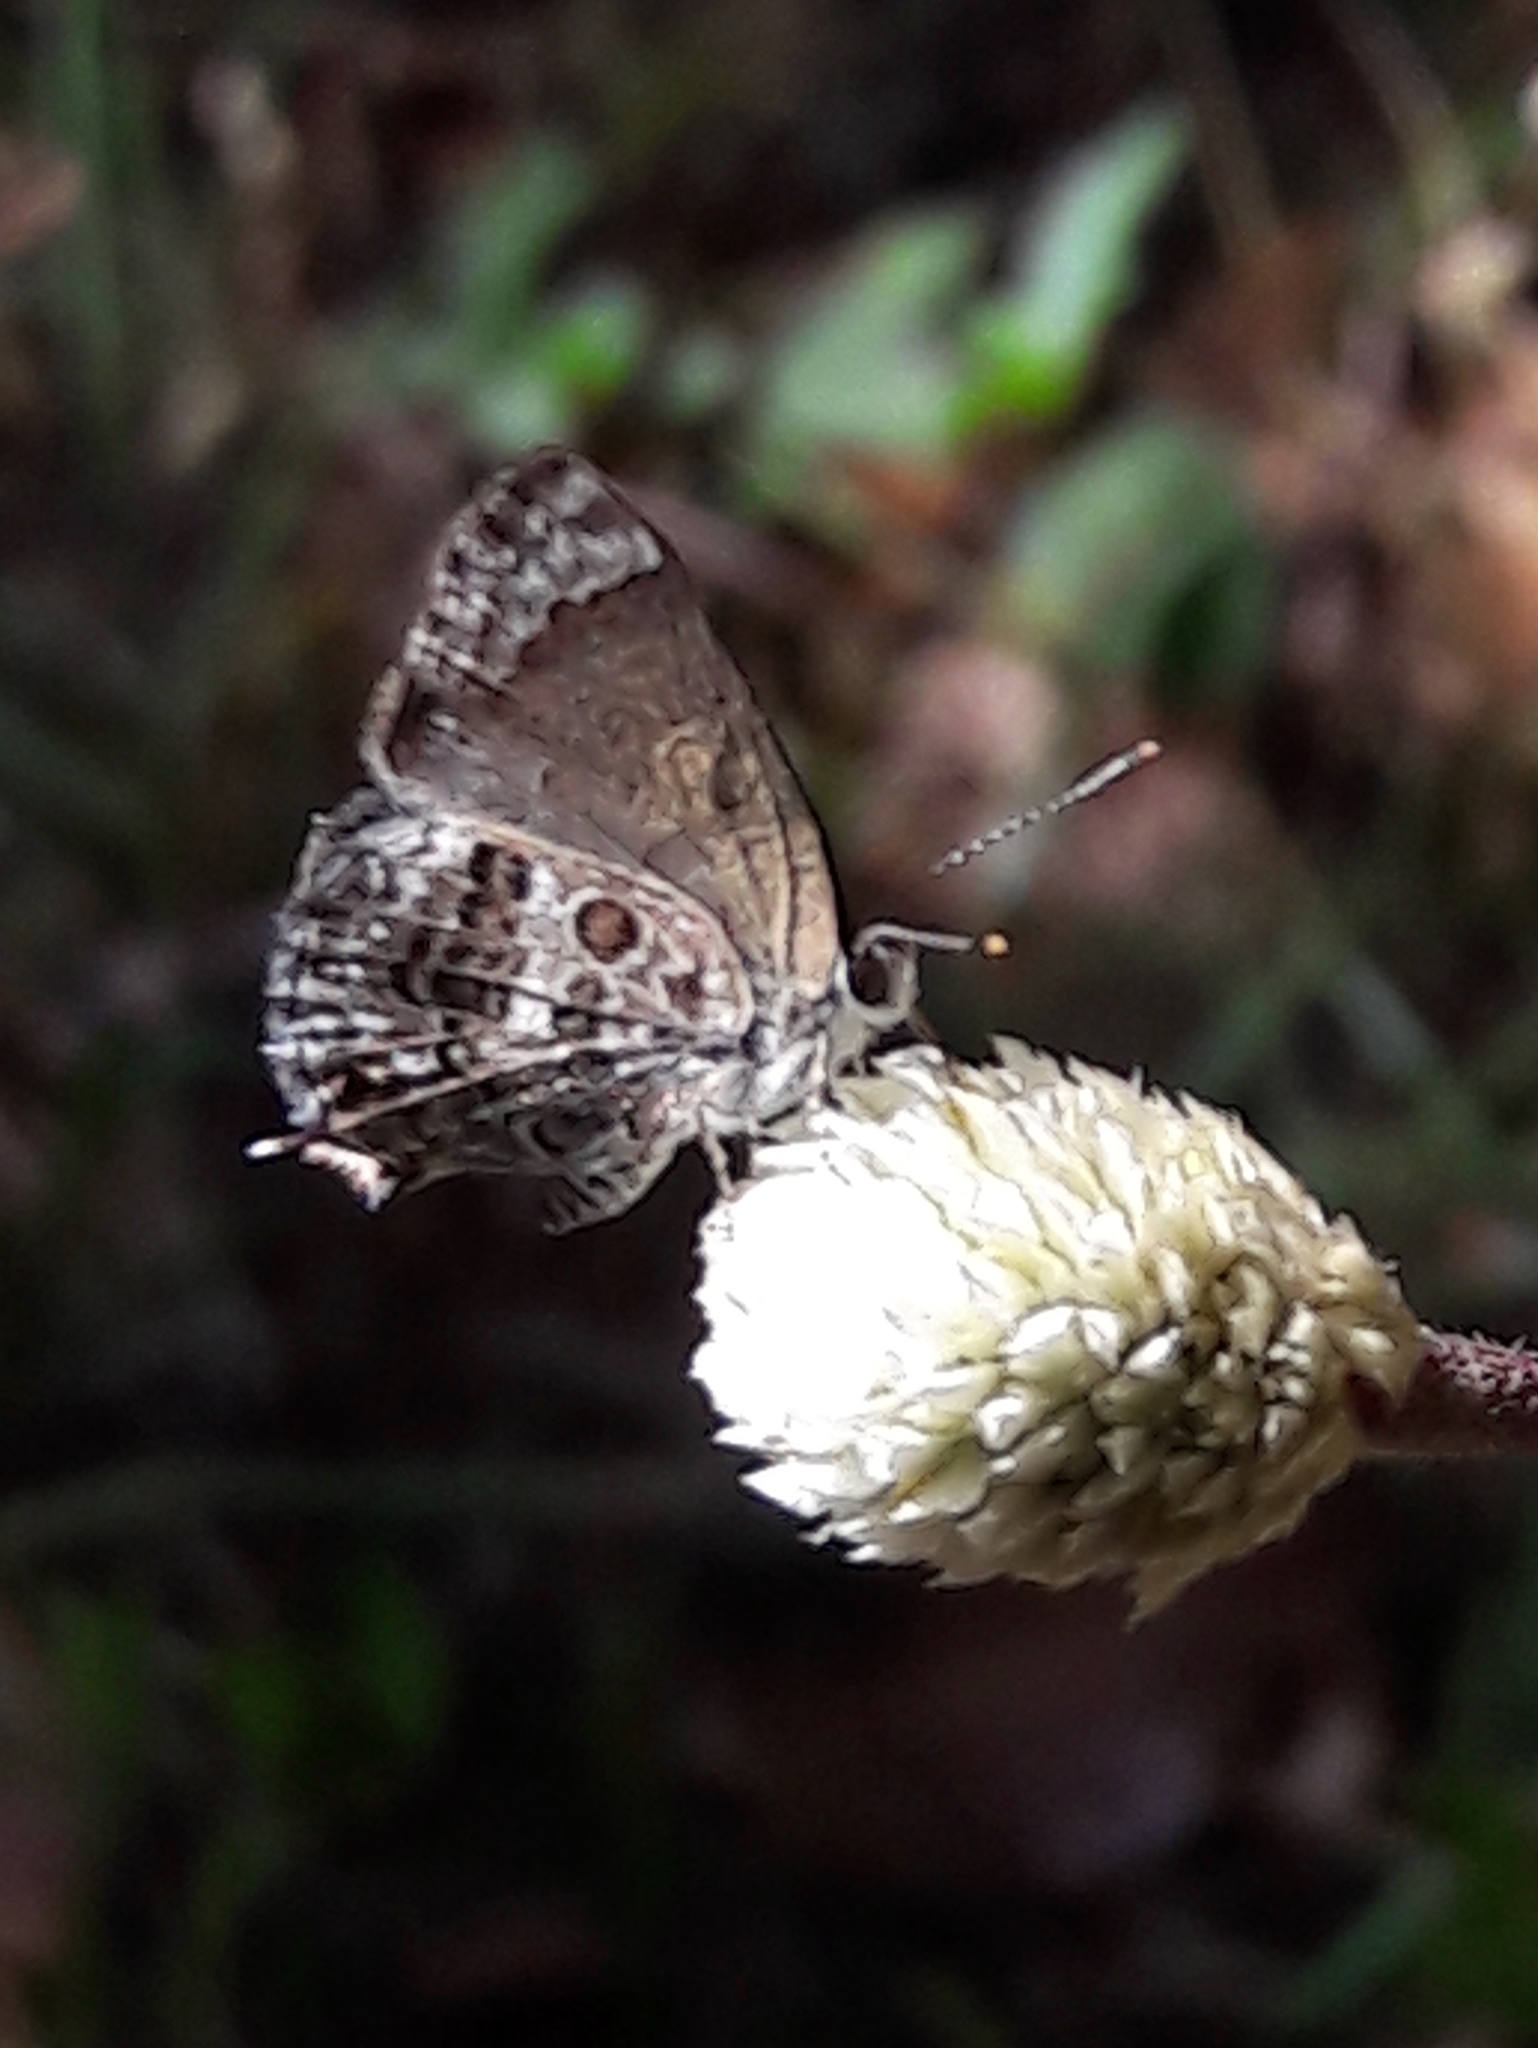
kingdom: Animalia
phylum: Arthropoda
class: Insecta
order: Lepidoptera
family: Lycaenidae
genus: Strymon
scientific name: Strymon astiocha
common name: Gray-spotted scrub-hairstreak
